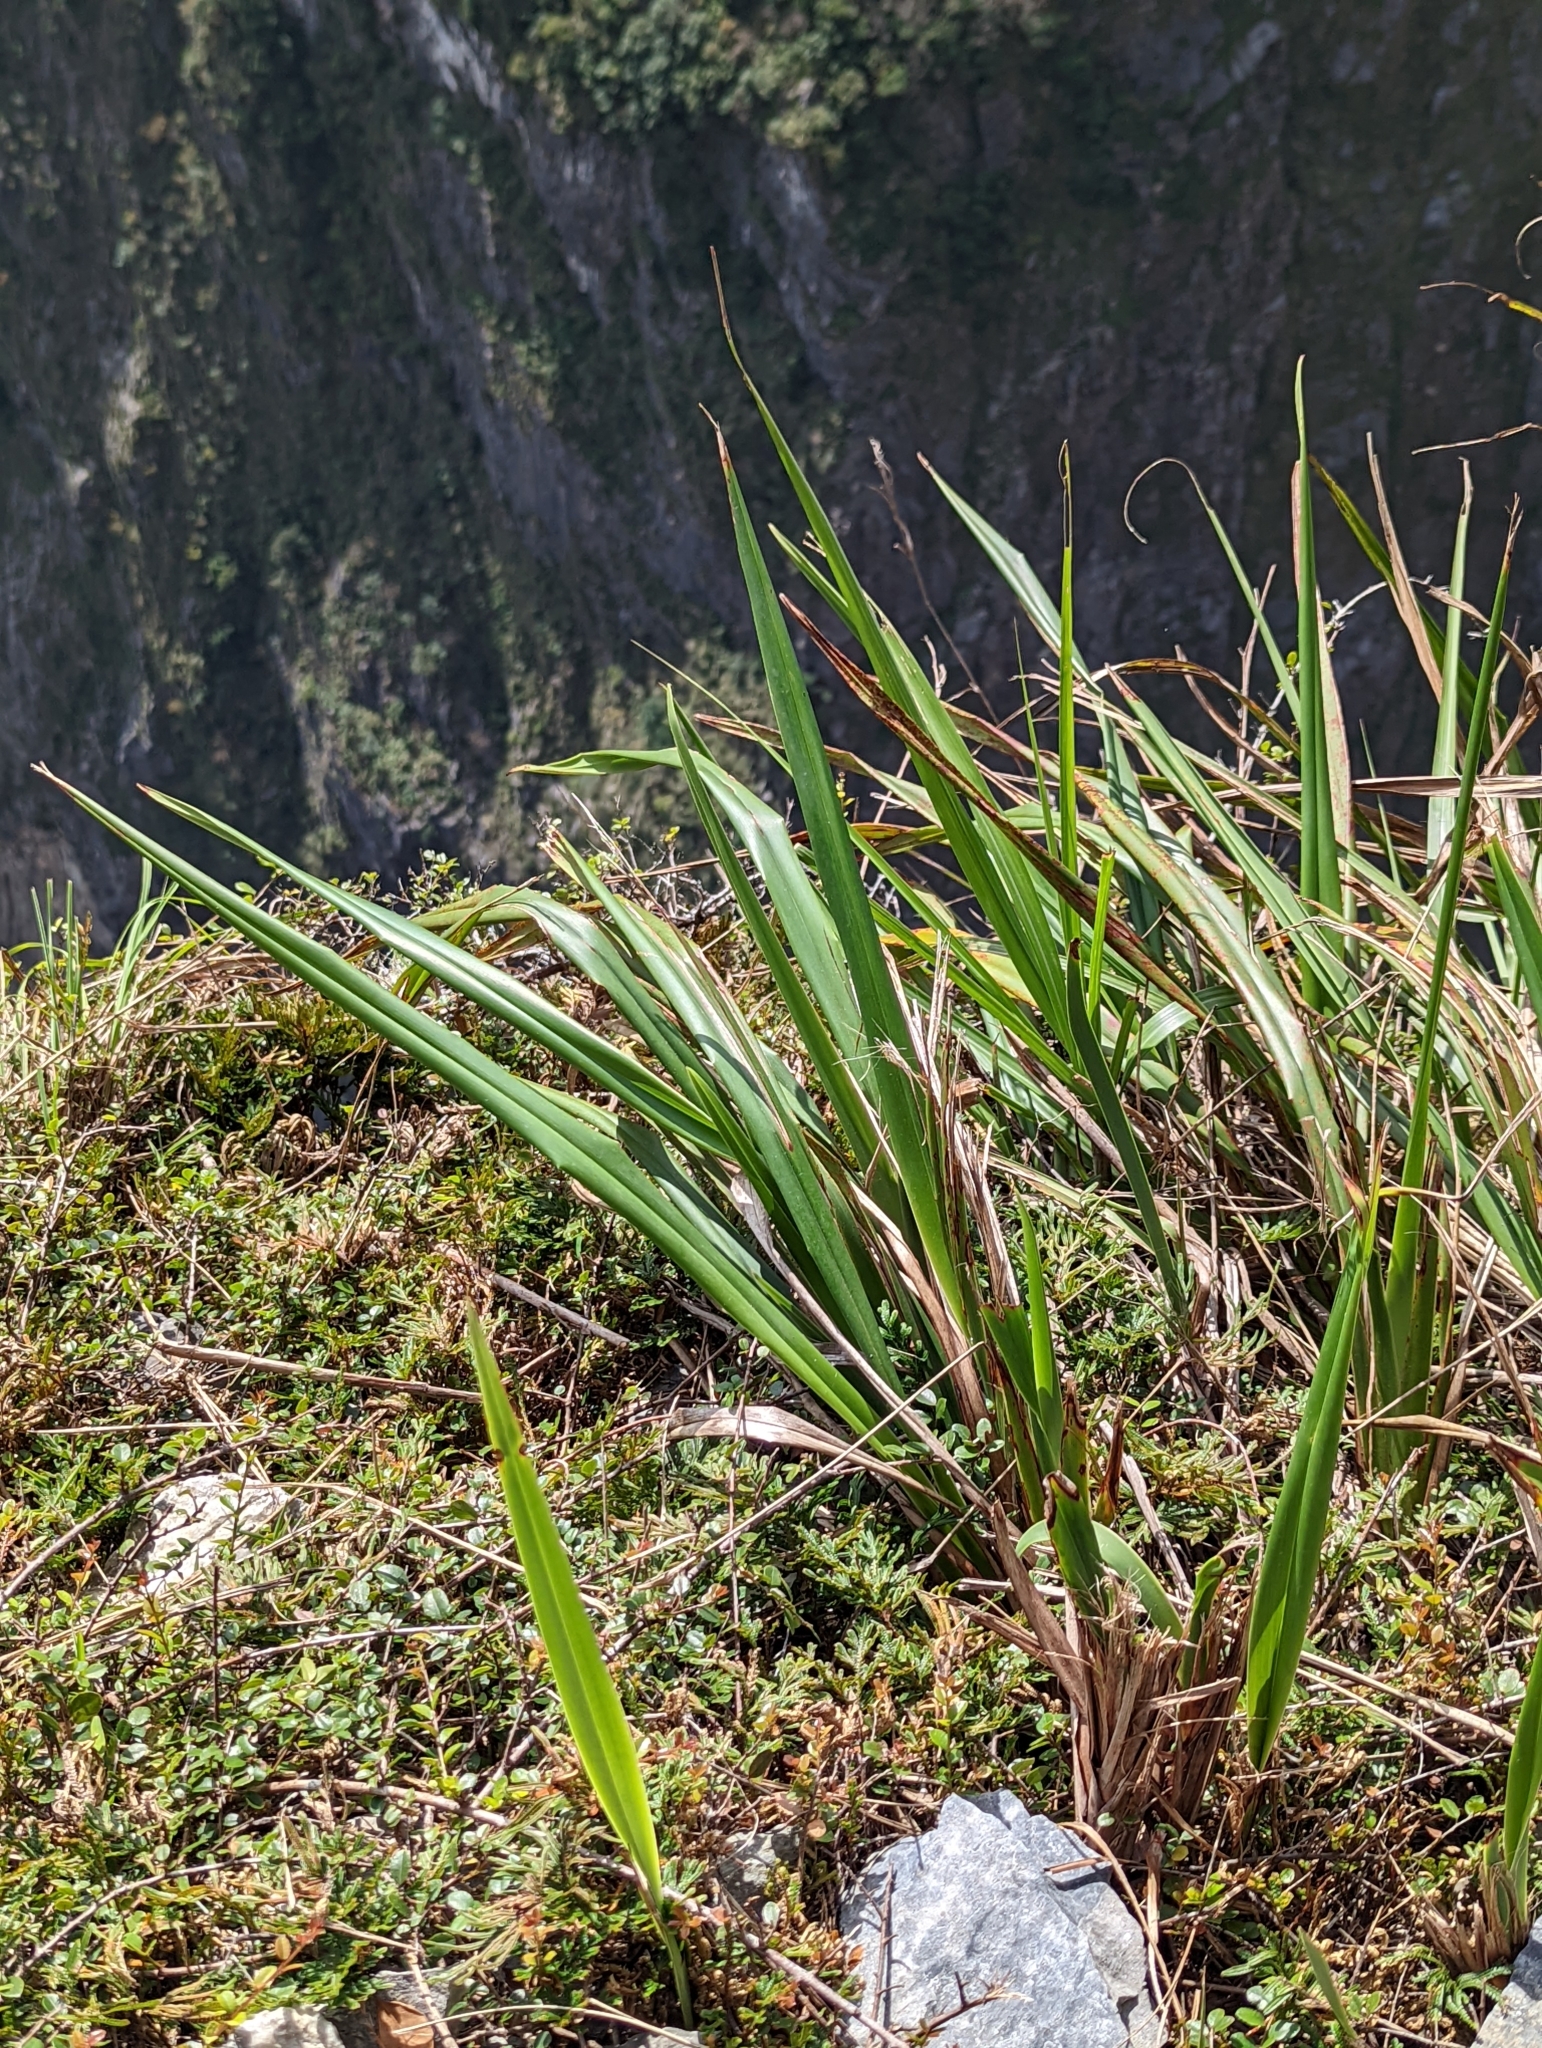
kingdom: Plantae
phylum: Tracheophyta
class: Liliopsida
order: Asparagales
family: Asphodelaceae
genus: Dianella
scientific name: Dianella ensifolia
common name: New zealand lilyplant
